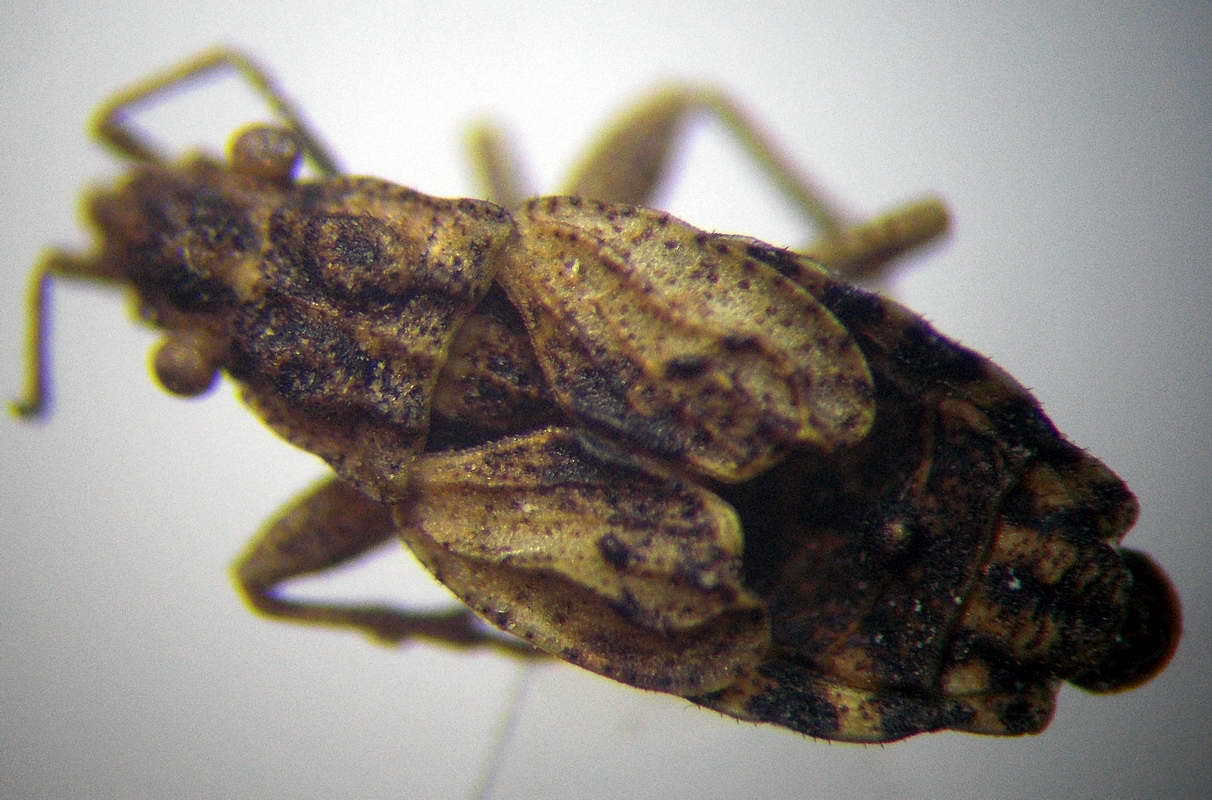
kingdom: Animalia
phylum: Arthropoda
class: Insecta
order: Hemiptera
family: Rhyparochromidae
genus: Diomphalus
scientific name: Diomphalus hispidulus
